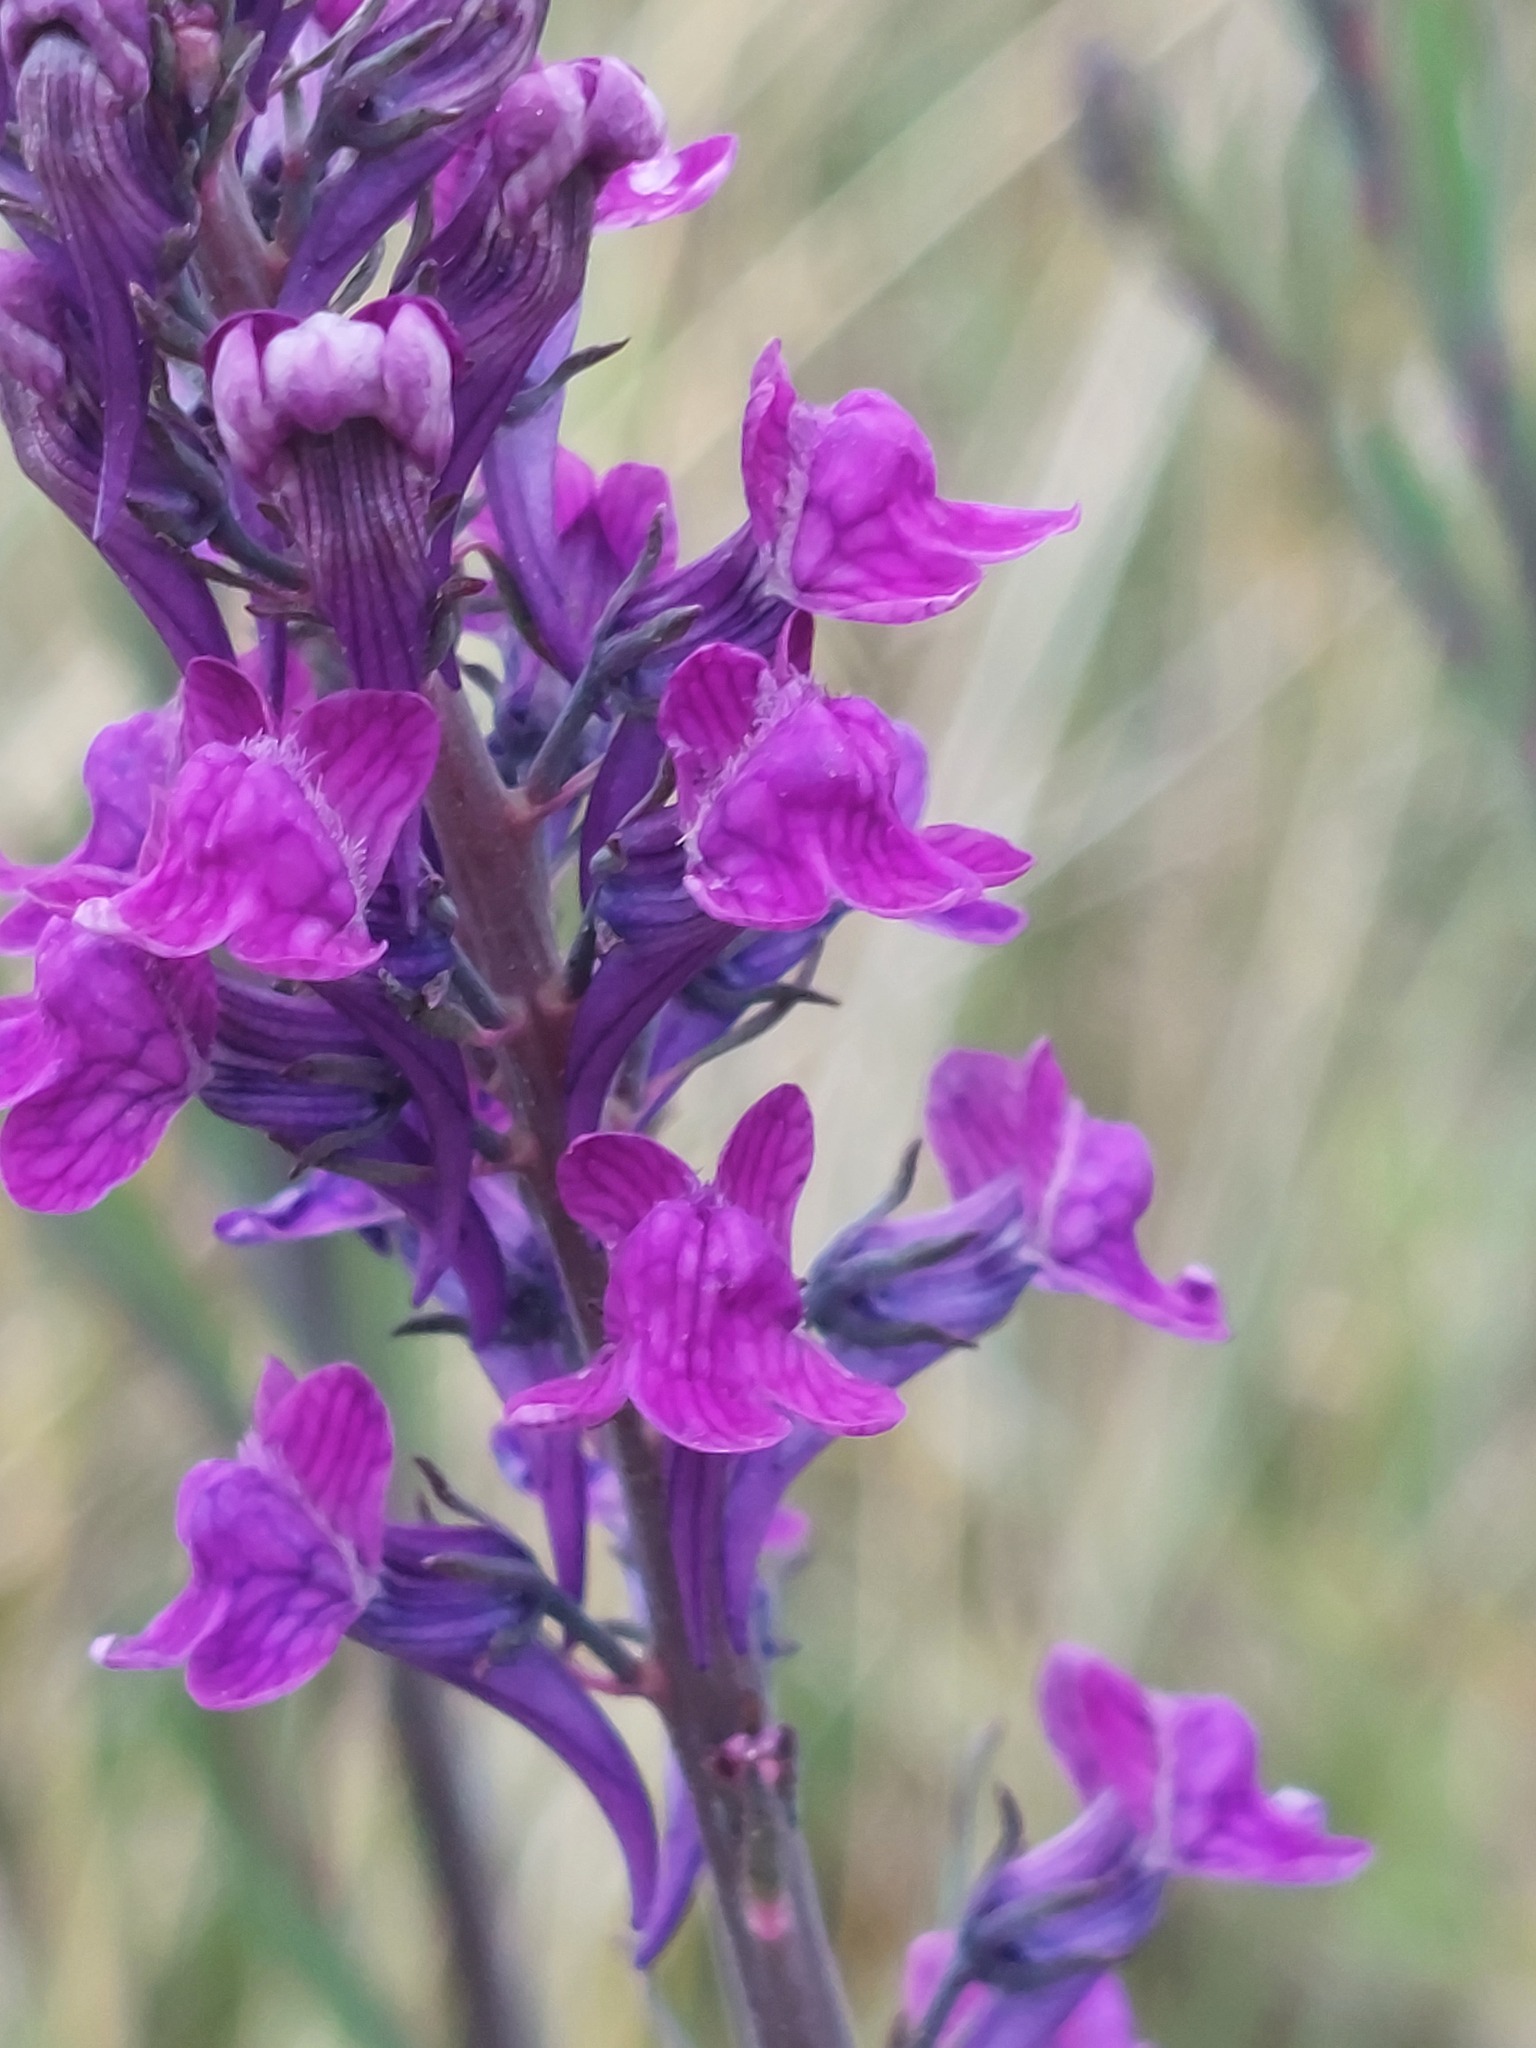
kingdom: Plantae
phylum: Tracheophyta
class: Magnoliopsida
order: Lamiales
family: Plantaginaceae
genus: Linaria
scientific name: Linaria purpurea
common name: Purple toadflax
